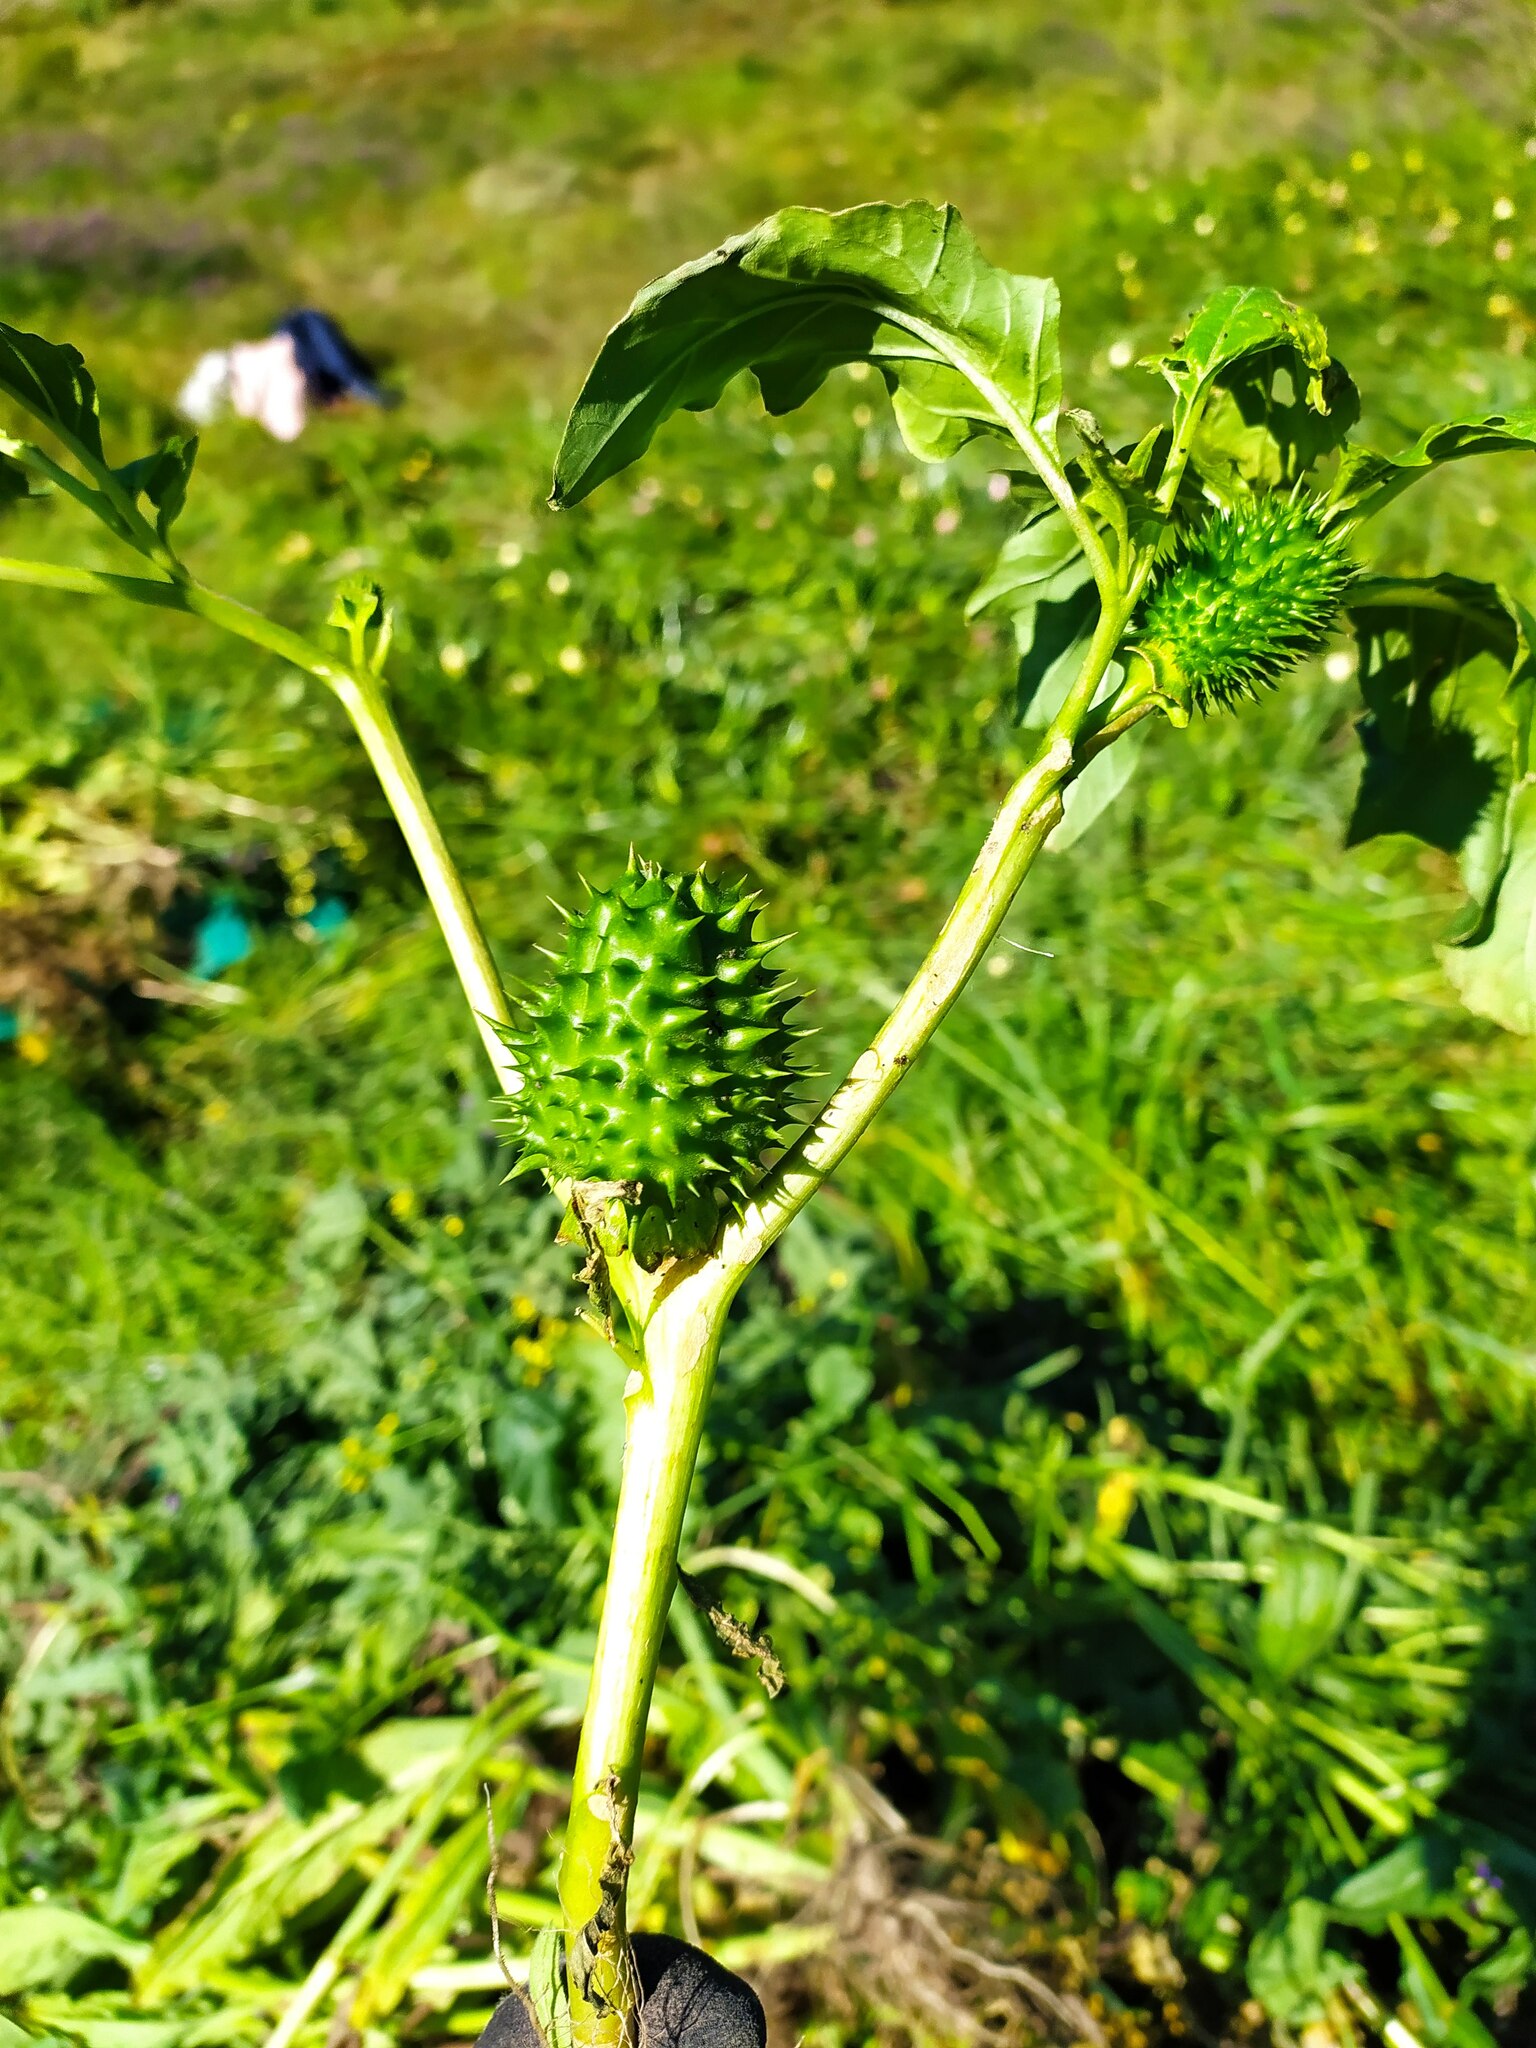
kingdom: Plantae
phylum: Tracheophyta
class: Magnoliopsida
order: Solanales
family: Solanaceae
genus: Datura
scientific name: Datura stramonium
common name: Thorn-apple
